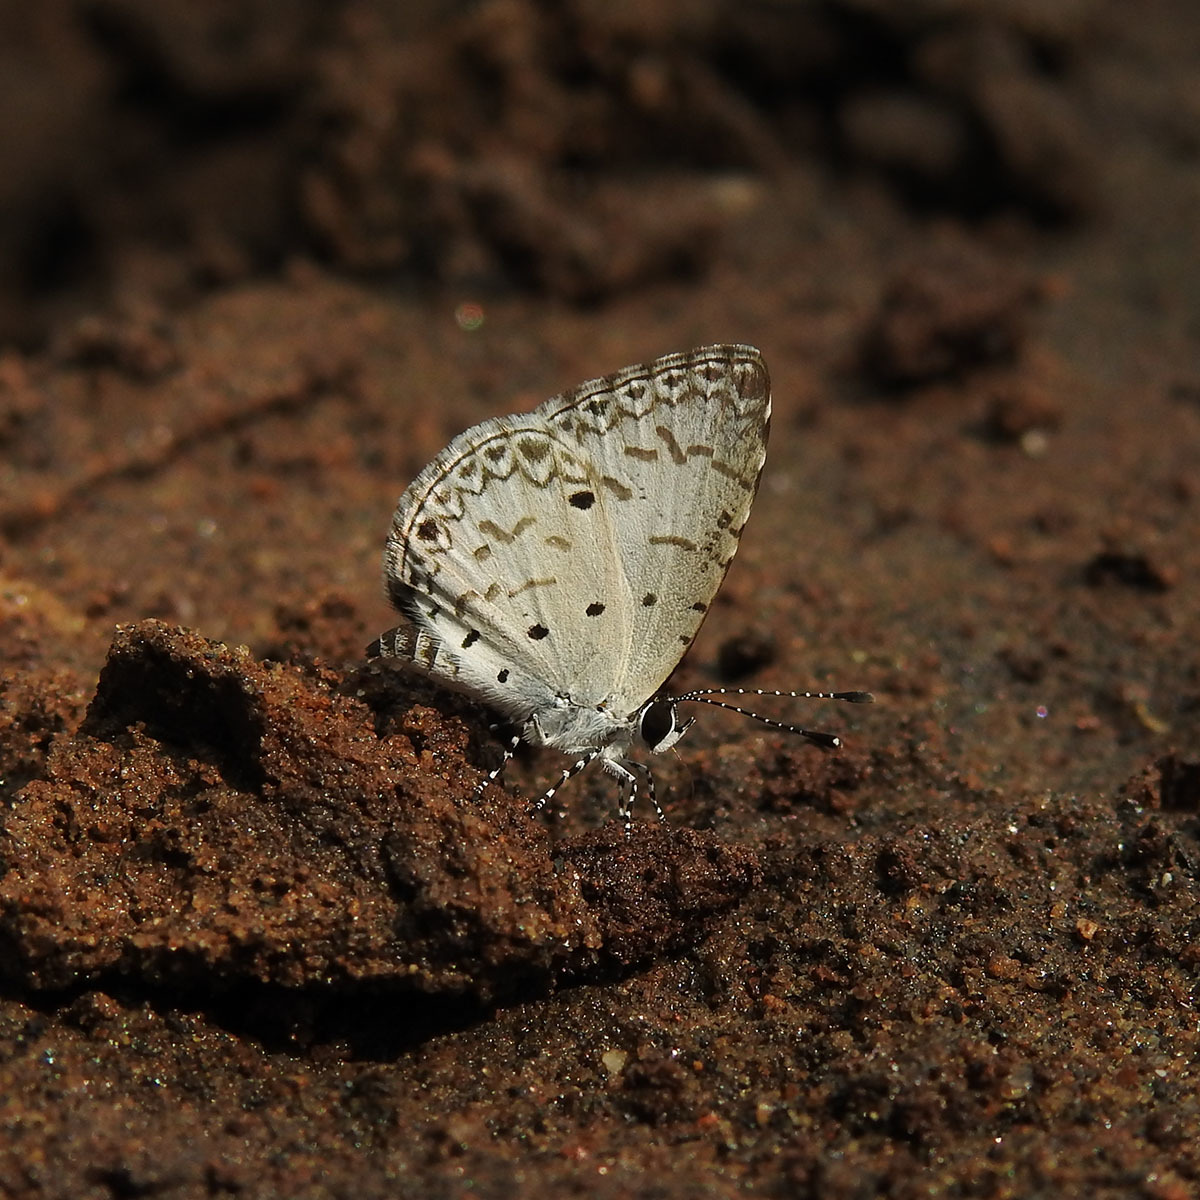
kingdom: Animalia
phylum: Arthropoda
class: Insecta
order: Lepidoptera
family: Lycaenidae
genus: Megisba
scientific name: Megisba malaya
